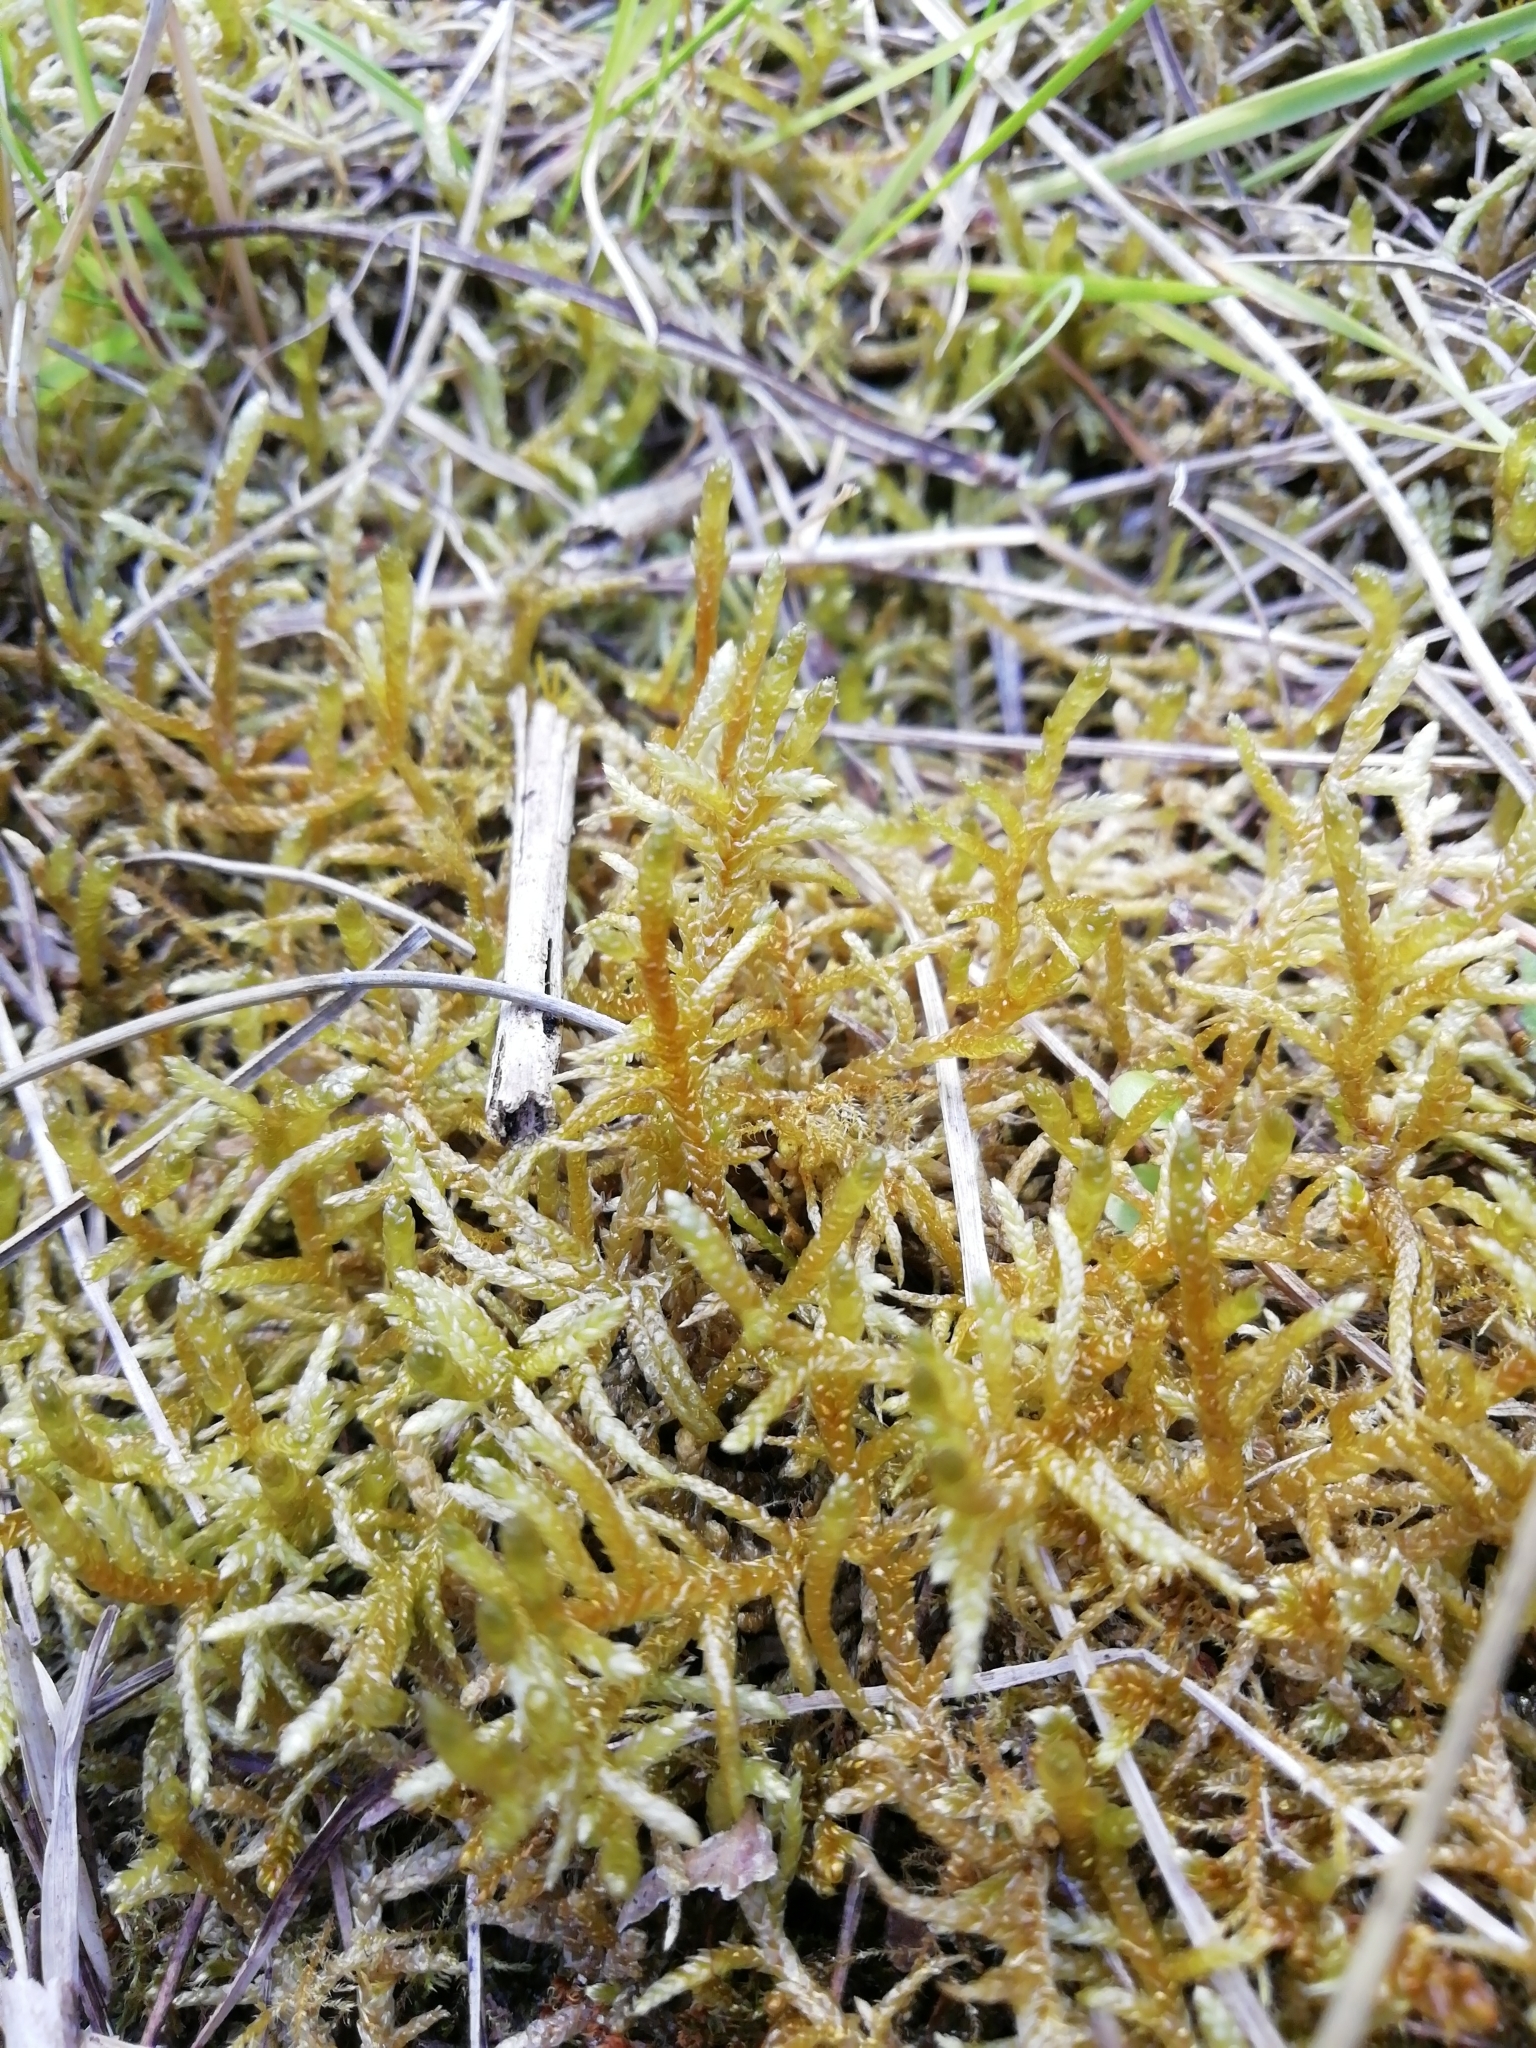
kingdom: Plantae
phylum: Bryophyta
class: Bryopsida
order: Hypnales
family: Brachytheciaceae
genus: Pseudoscleropodium
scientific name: Pseudoscleropodium purum
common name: Neat feather-moss
